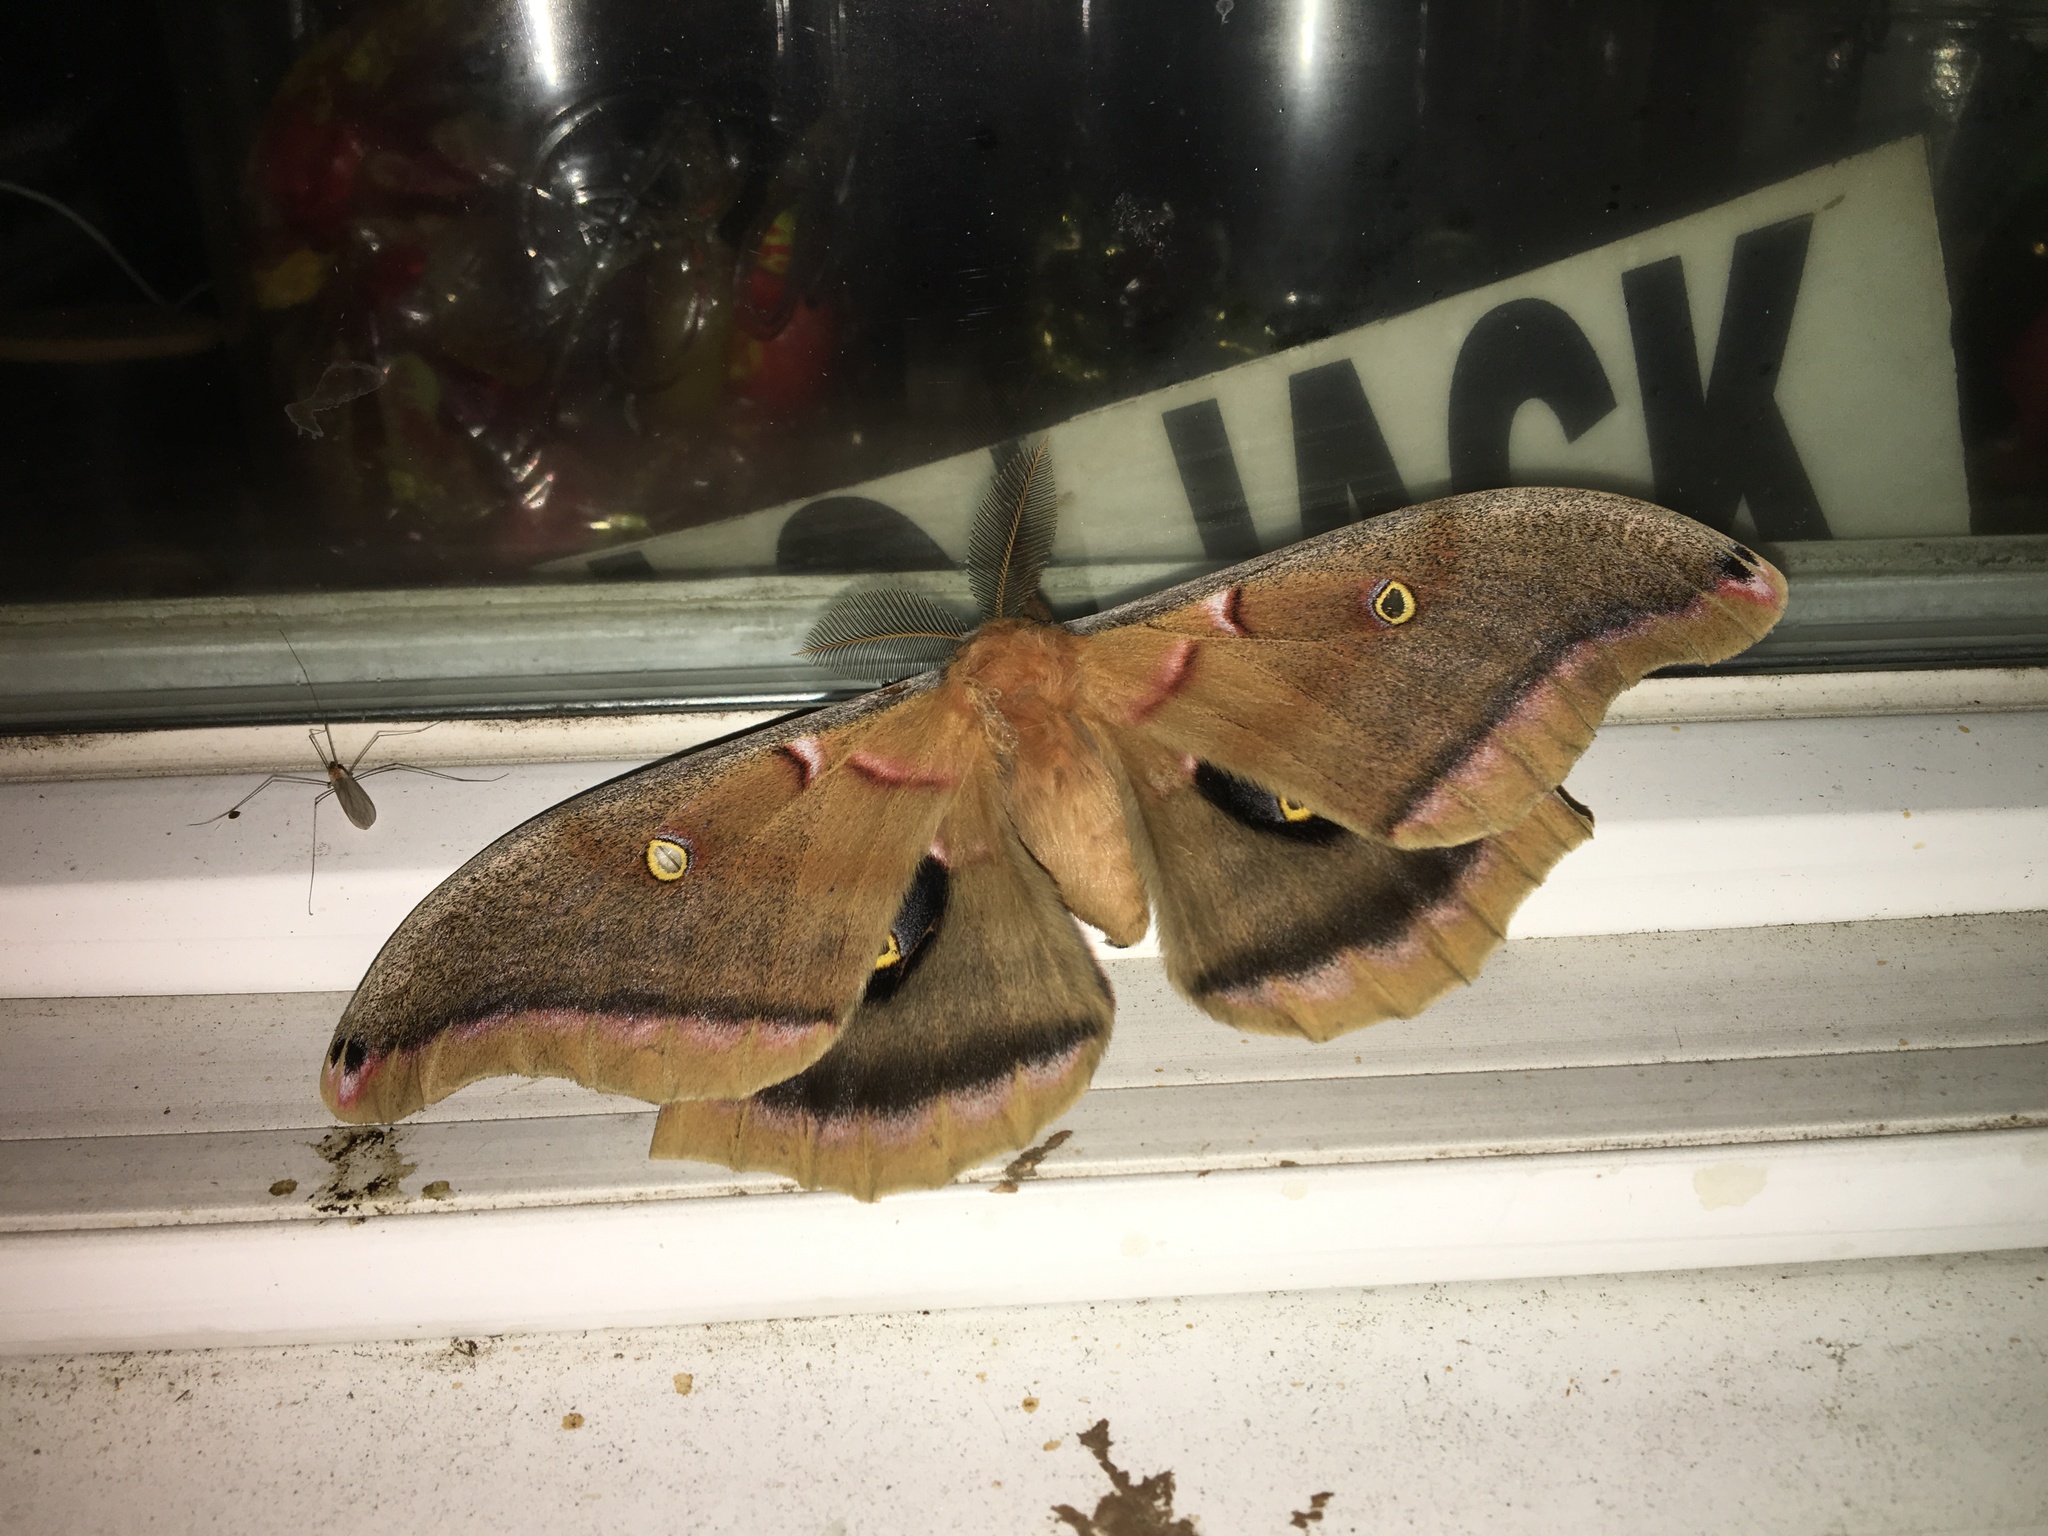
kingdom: Animalia
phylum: Arthropoda
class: Insecta
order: Lepidoptera
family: Saturniidae
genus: Antheraea
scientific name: Antheraea polyphemus
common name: Polyphemus moth
